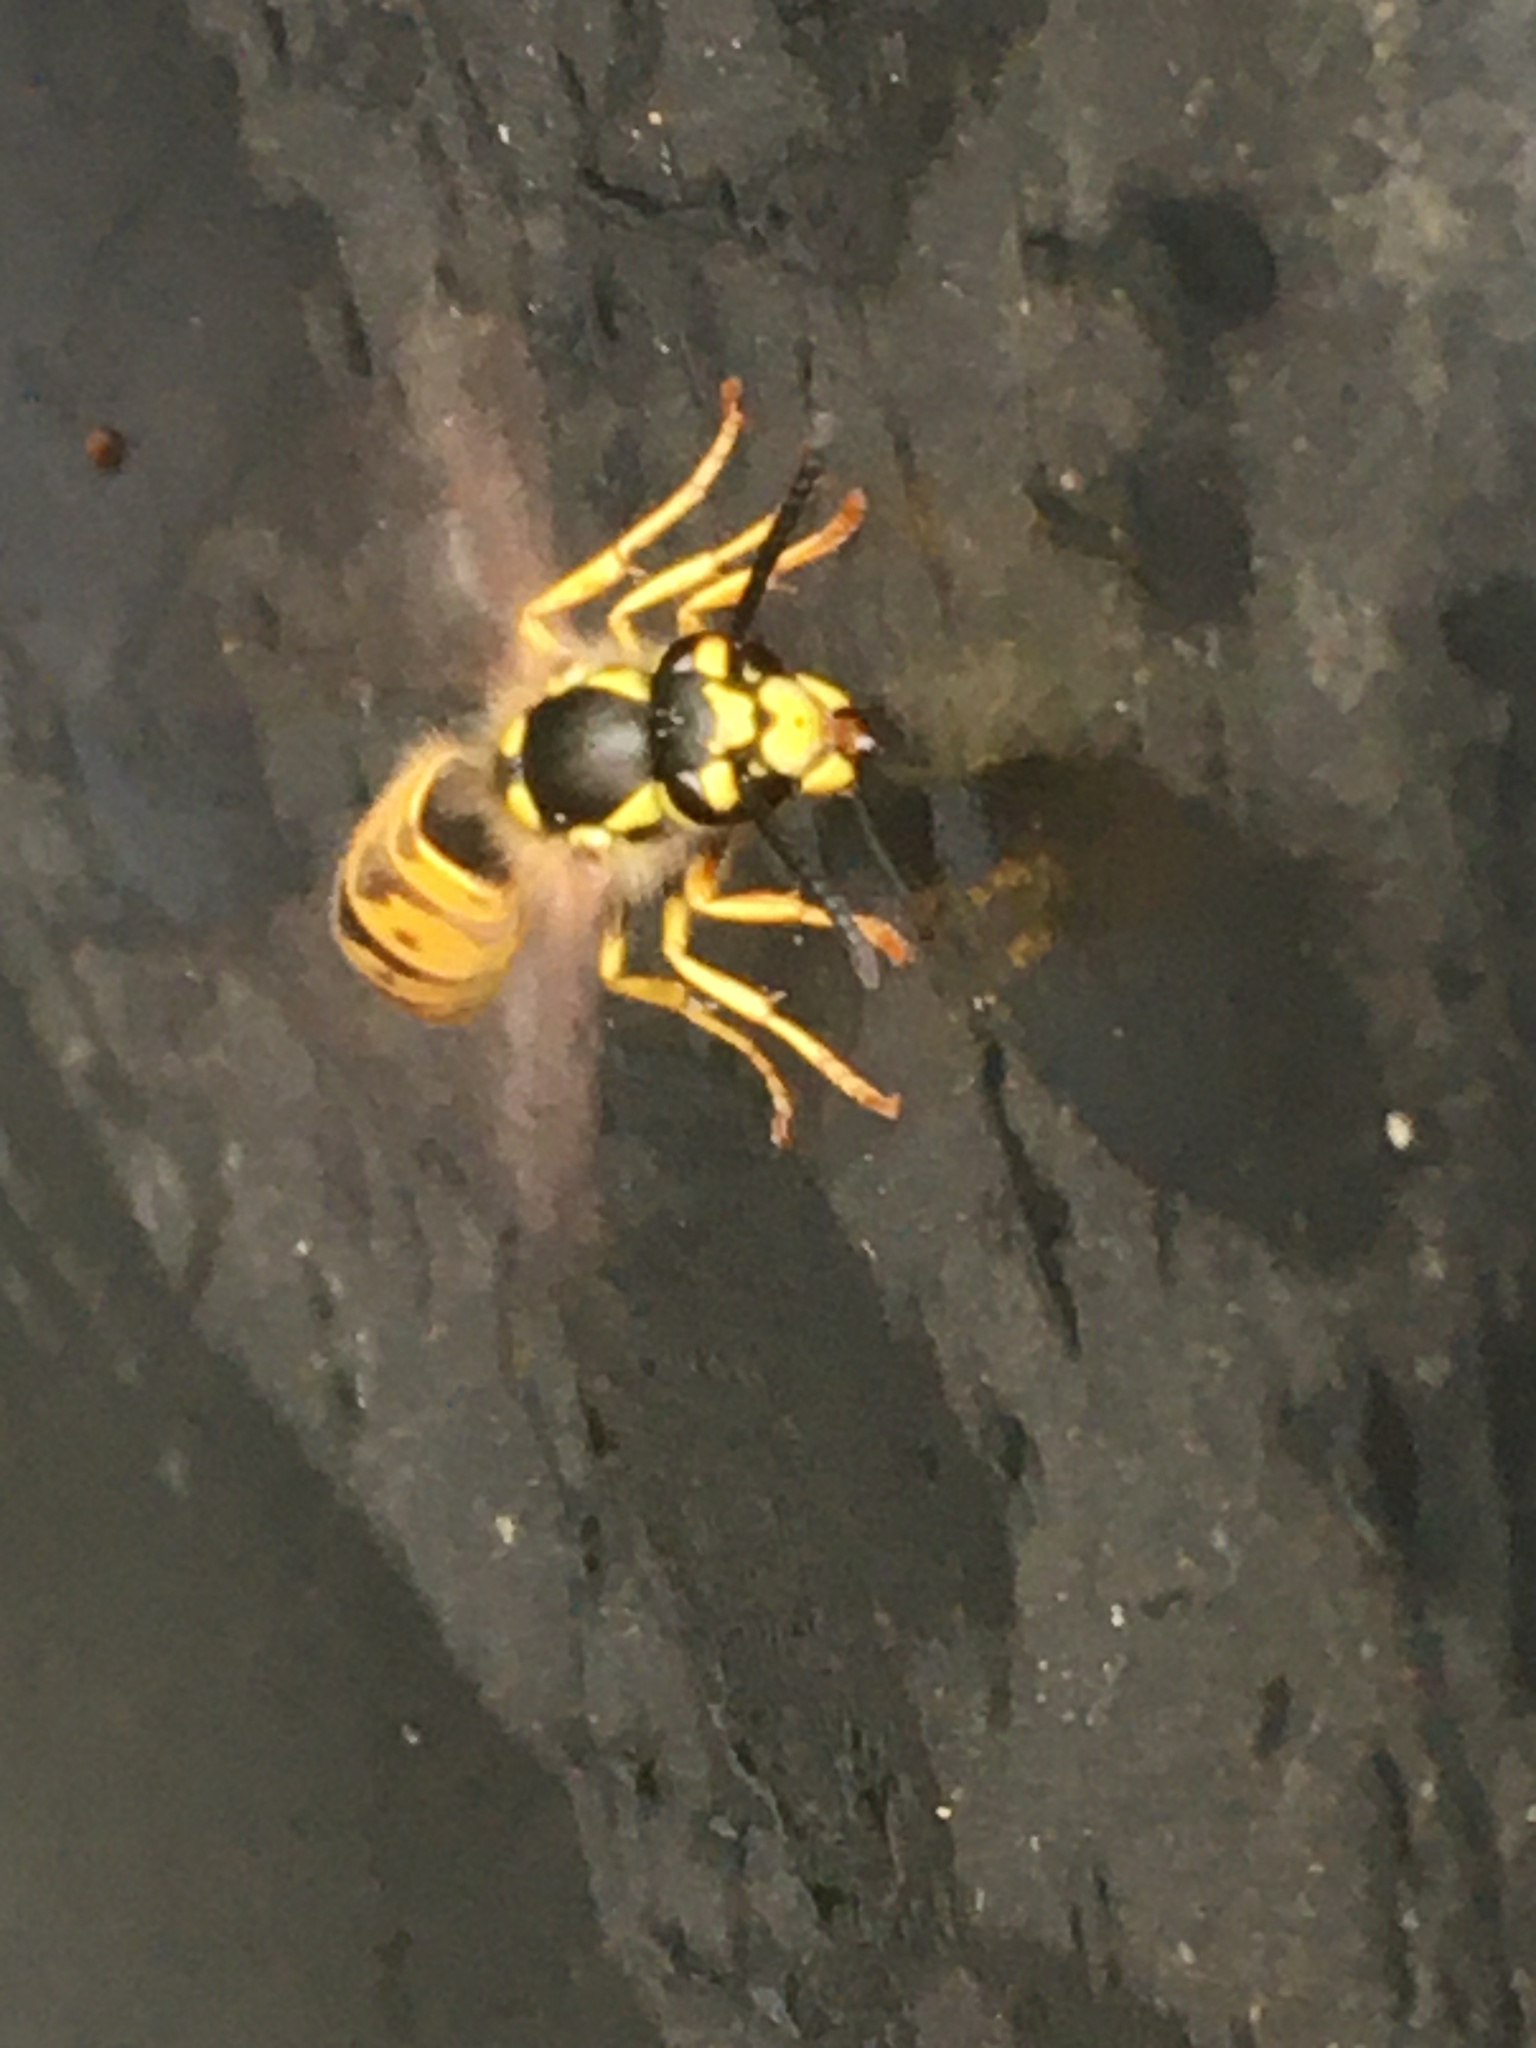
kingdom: Animalia
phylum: Arthropoda
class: Insecta
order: Hymenoptera
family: Vespidae
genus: Vespula
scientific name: Vespula germanica
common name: German wasp
